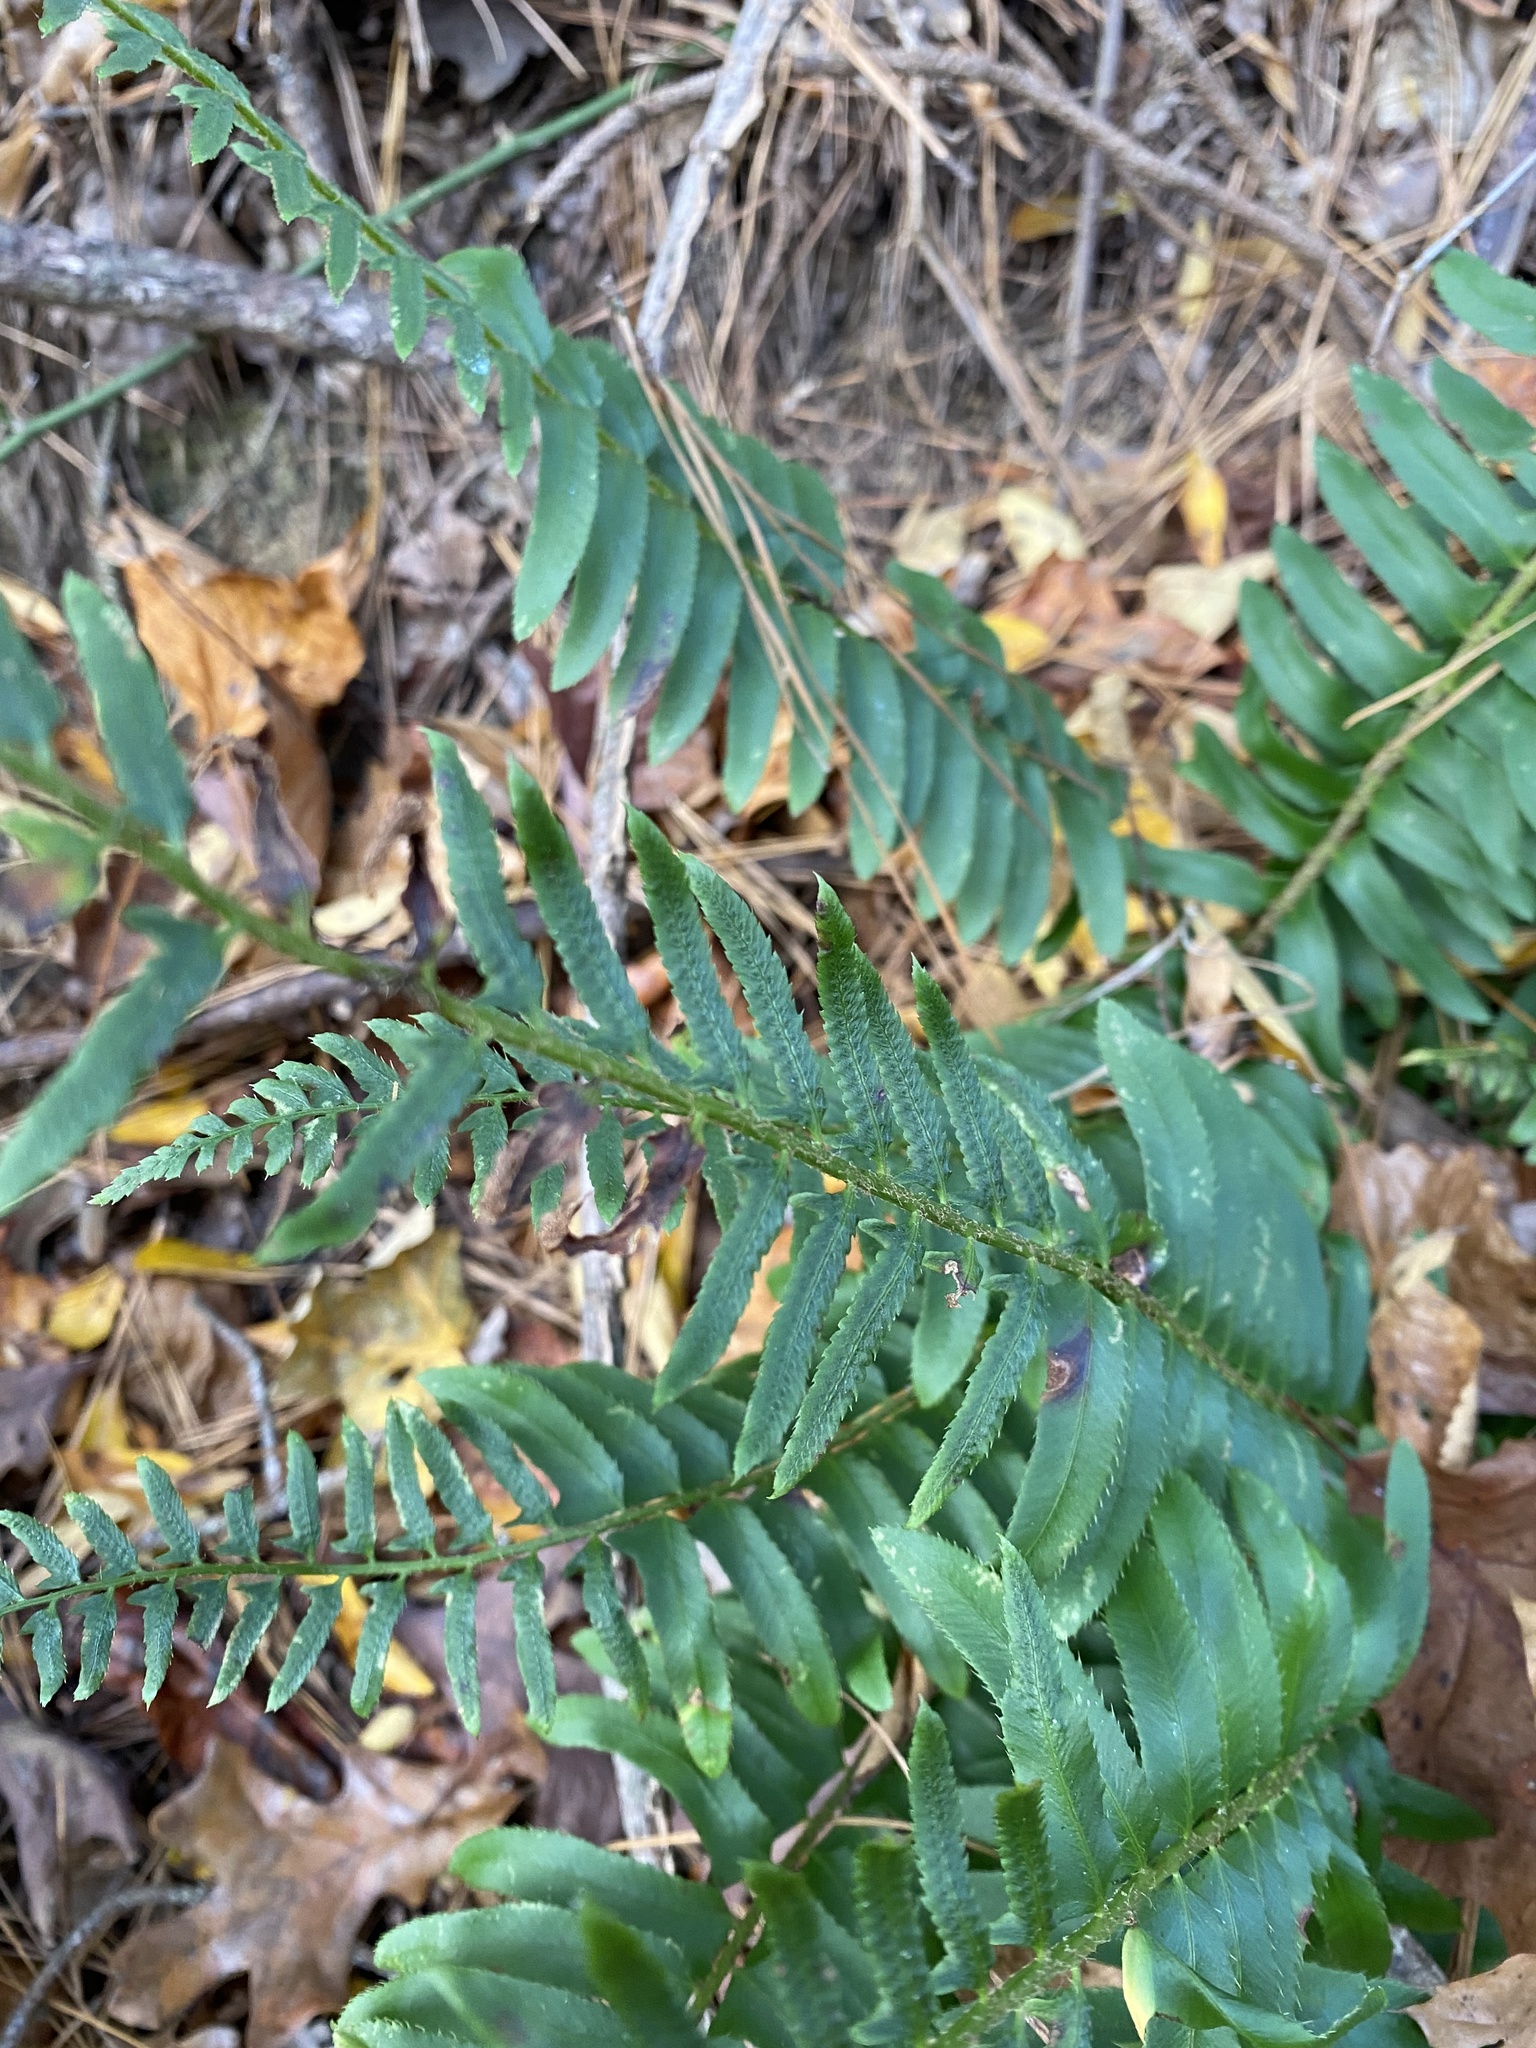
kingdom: Plantae
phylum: Tracheophyta
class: Polypodiopsida
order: Polypodiales
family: Dryopteridaceae
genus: Polystichum
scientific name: Polystichum acrostichoides
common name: Christmas fern
